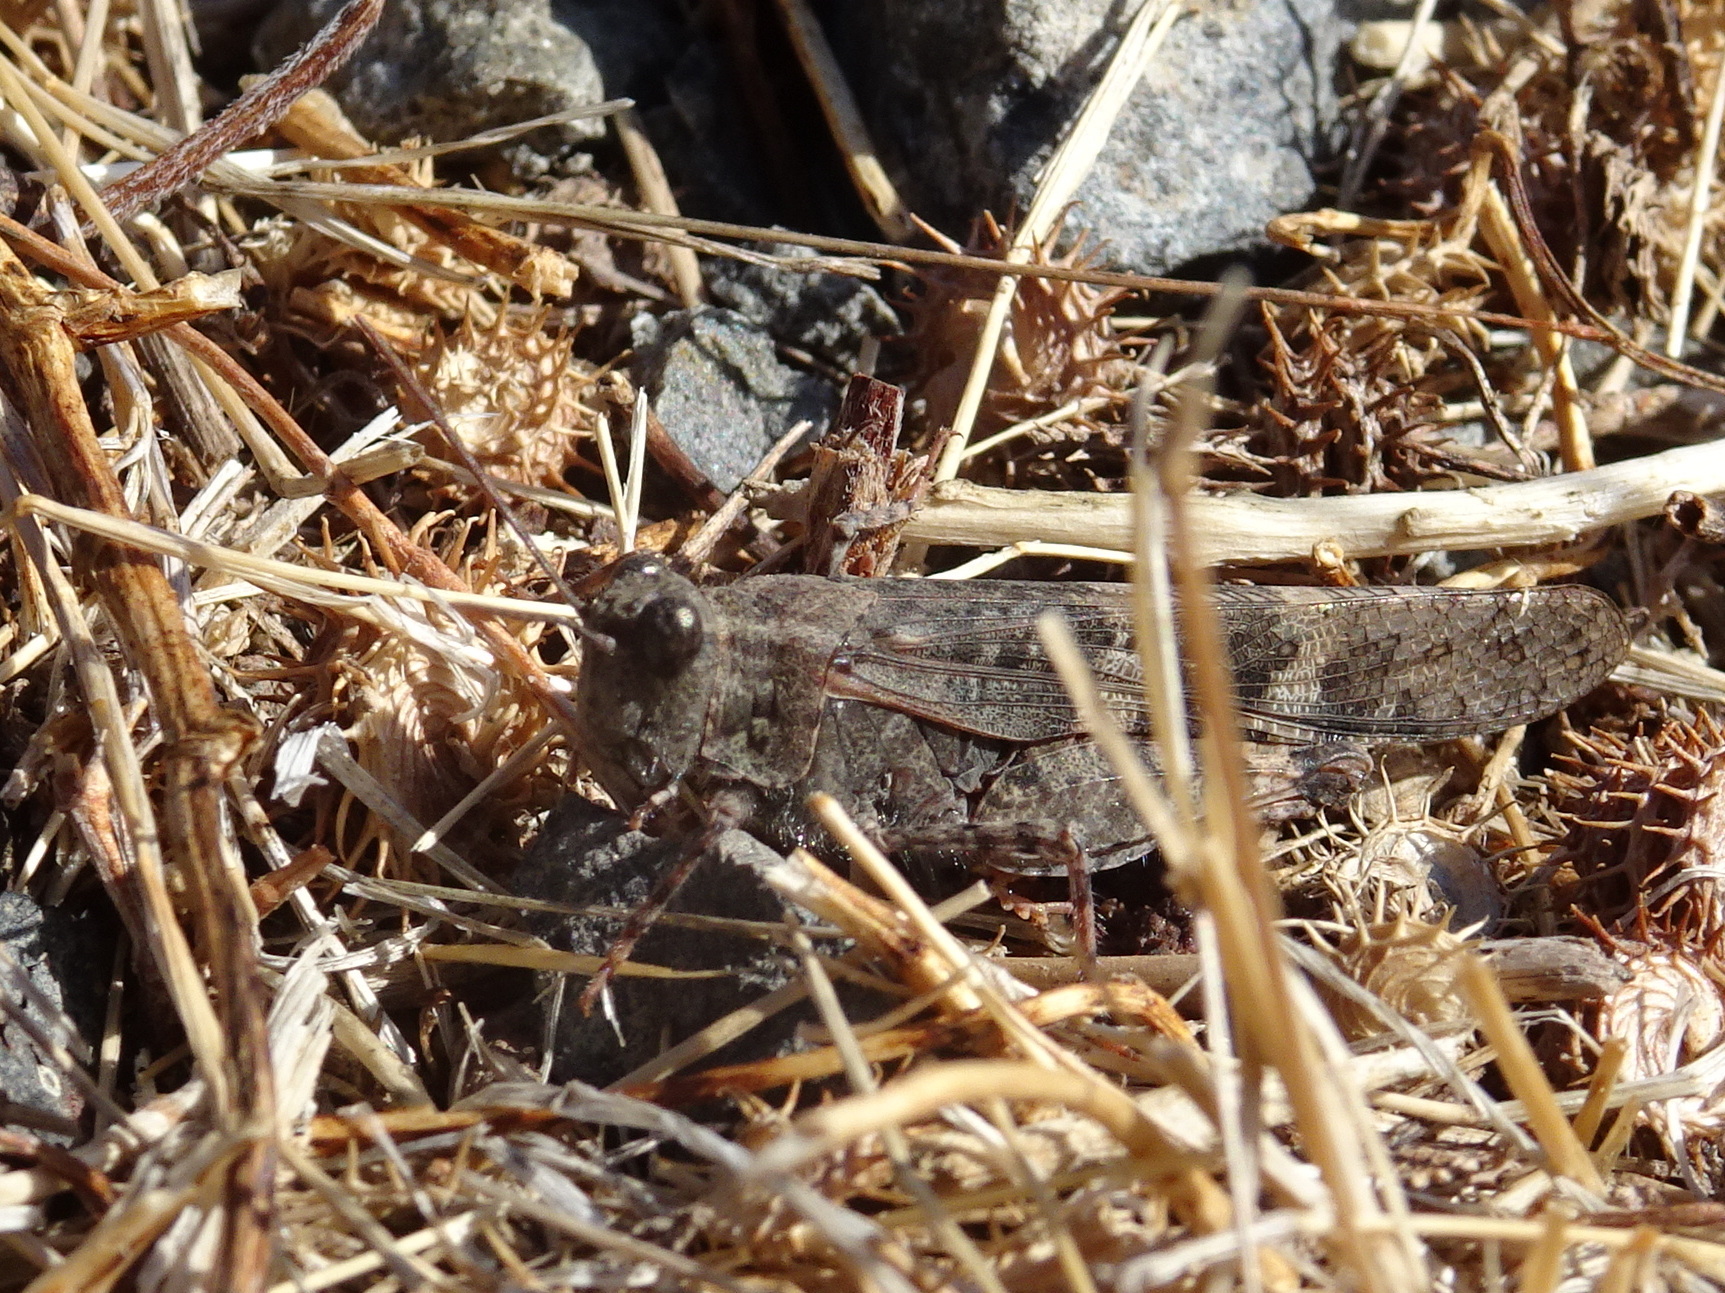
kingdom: Animalia
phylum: Arthropoda
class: Insecta
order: Orthoptera
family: Acrididae
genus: Trimerotropis
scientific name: Trimerotropis pallidipennis
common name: Pallid-winged grasshopper
